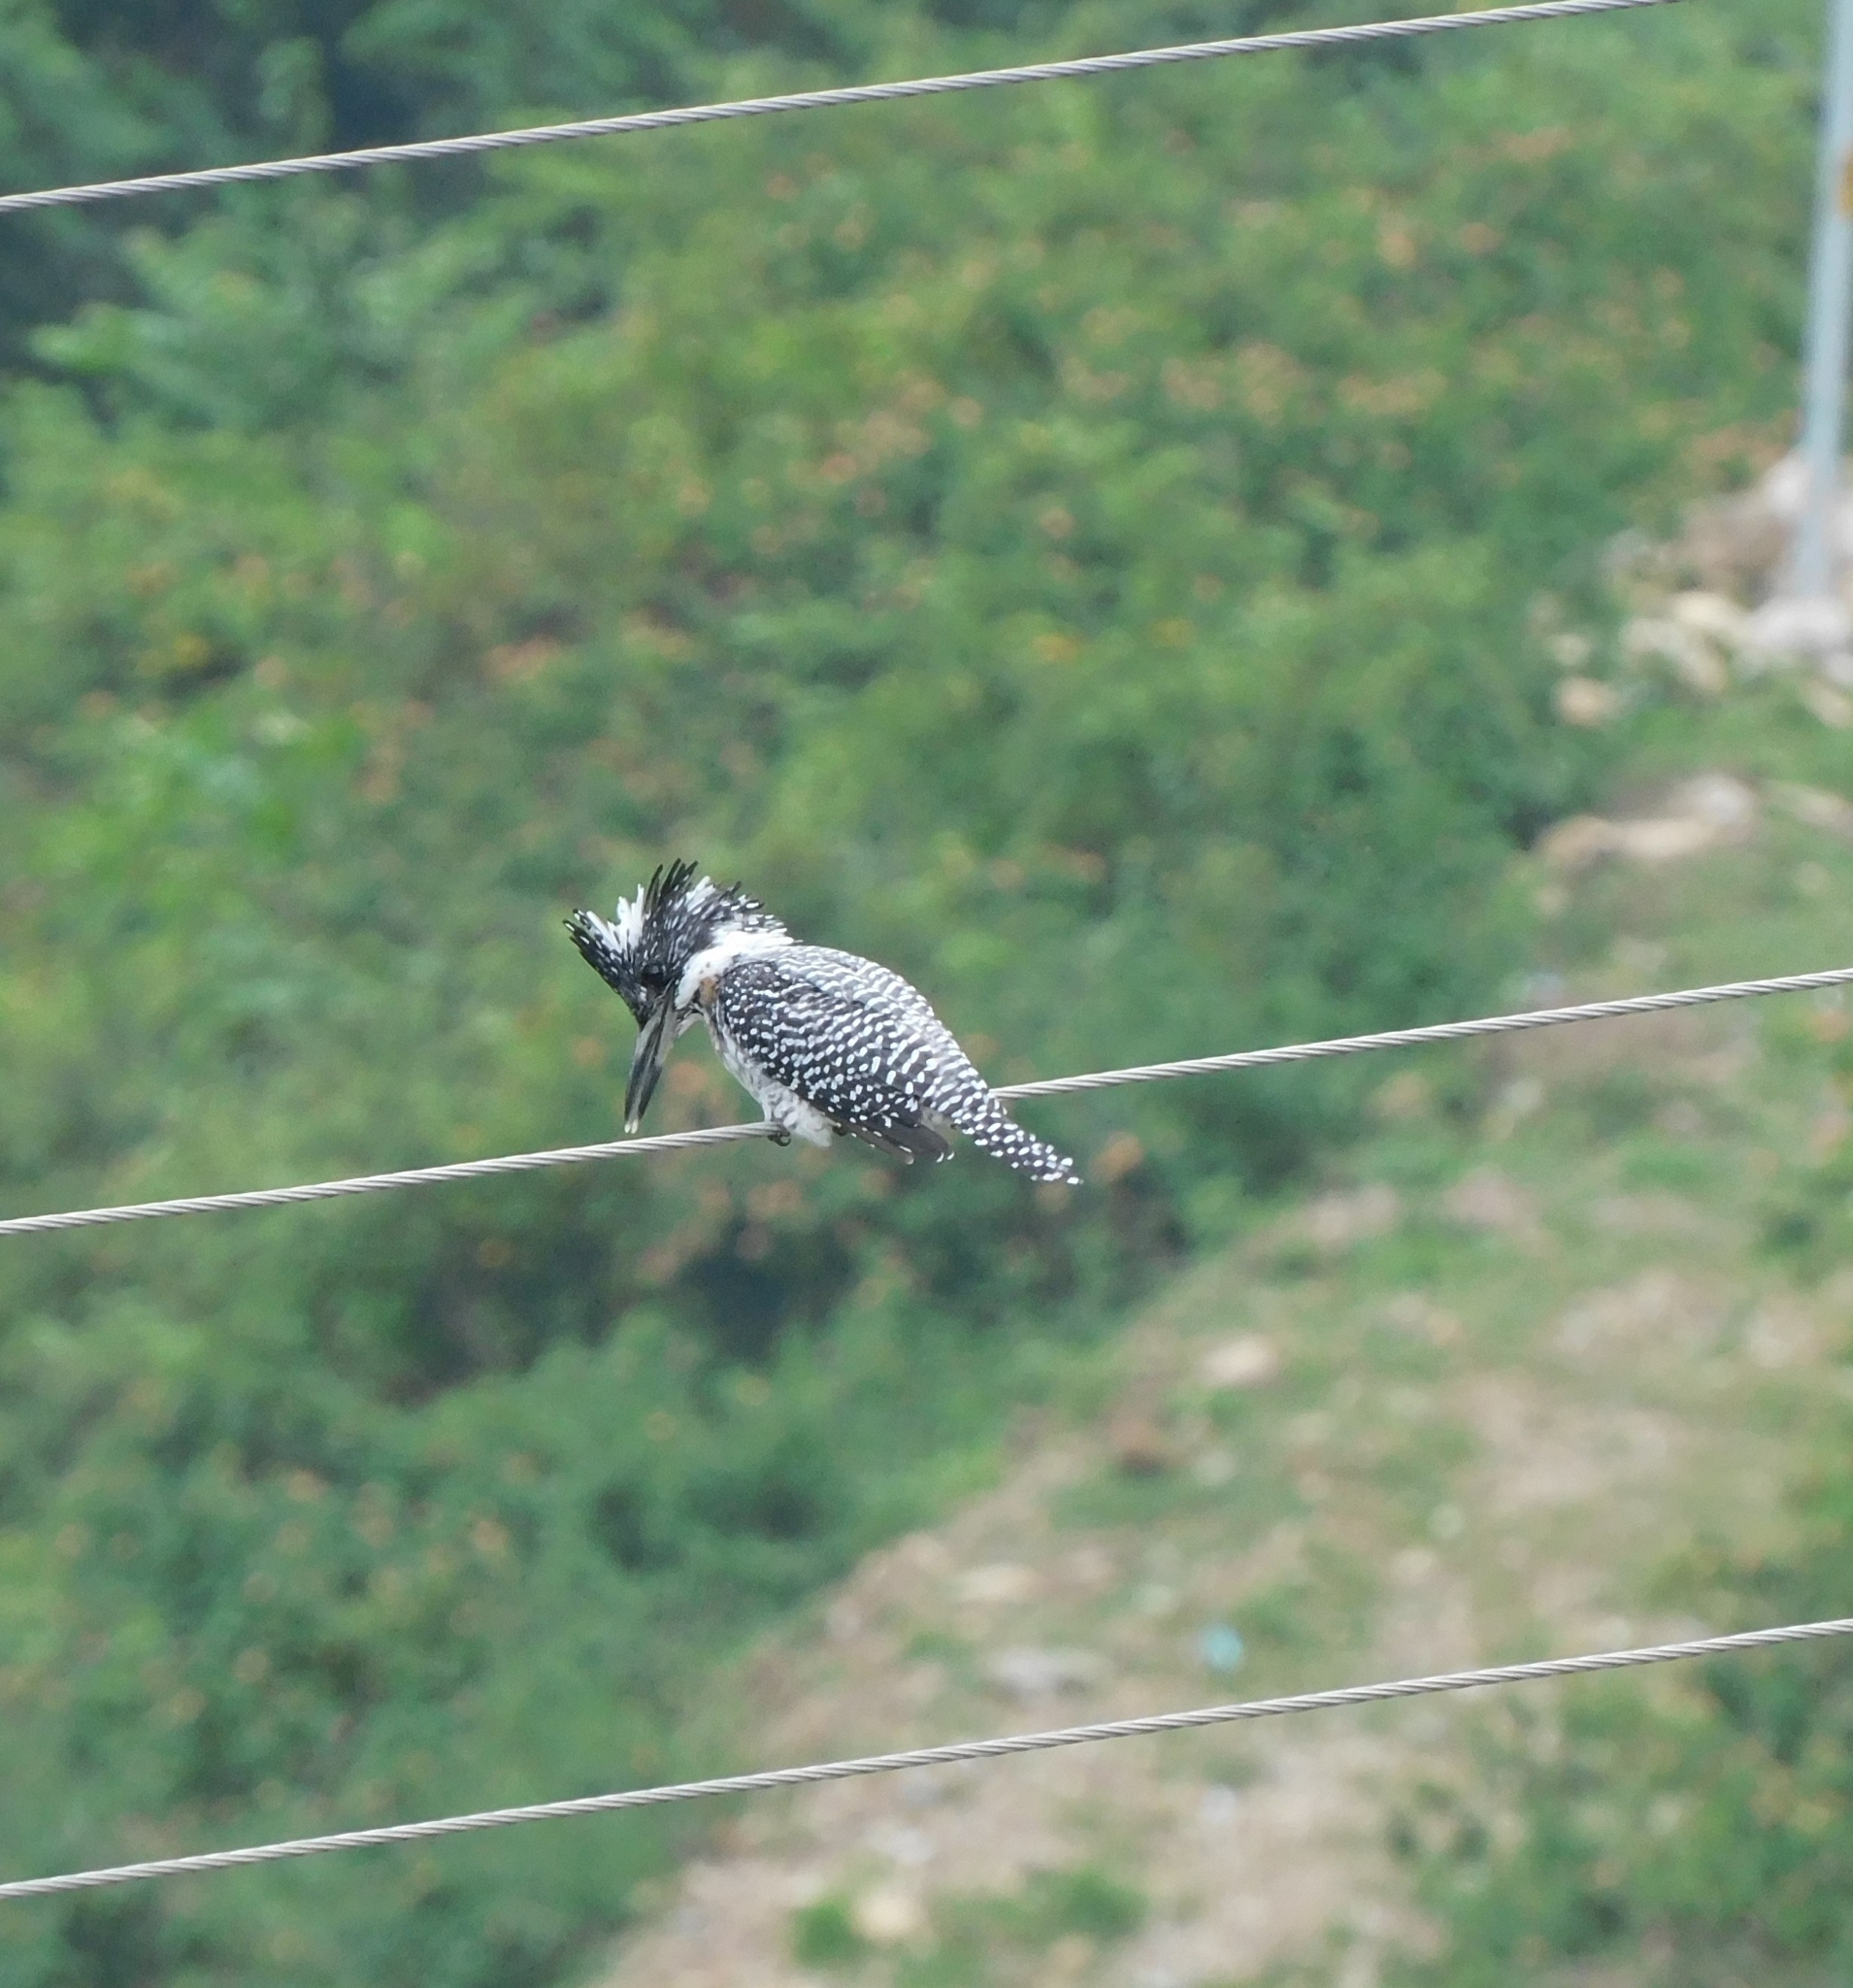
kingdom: Animalia
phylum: Chordata
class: Aves
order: Coraciiformes
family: Alcedinidae
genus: Megaceryle
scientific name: Megaceryle lugubris
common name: Crested kingfisher
